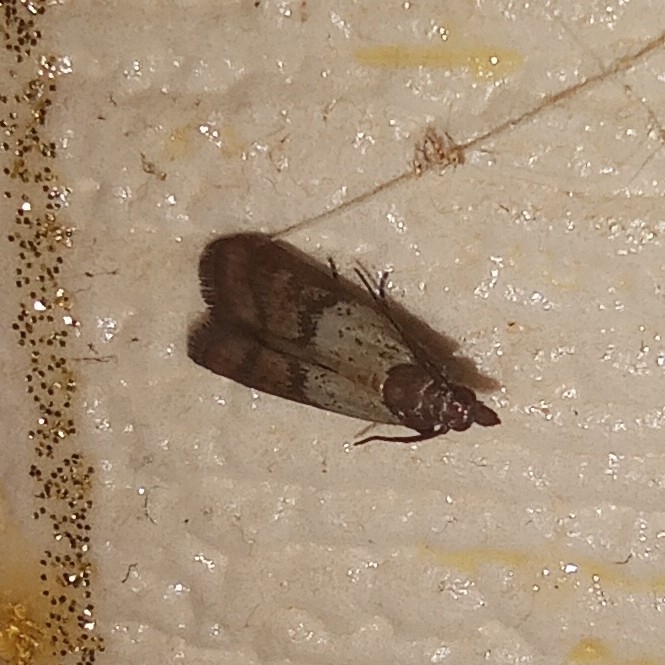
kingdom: Animalia
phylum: Arthropoda
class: Insecta
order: Lepidoptera
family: Pyralidae
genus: Plodia
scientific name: Plodia interpunctella
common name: Indian meal moth
